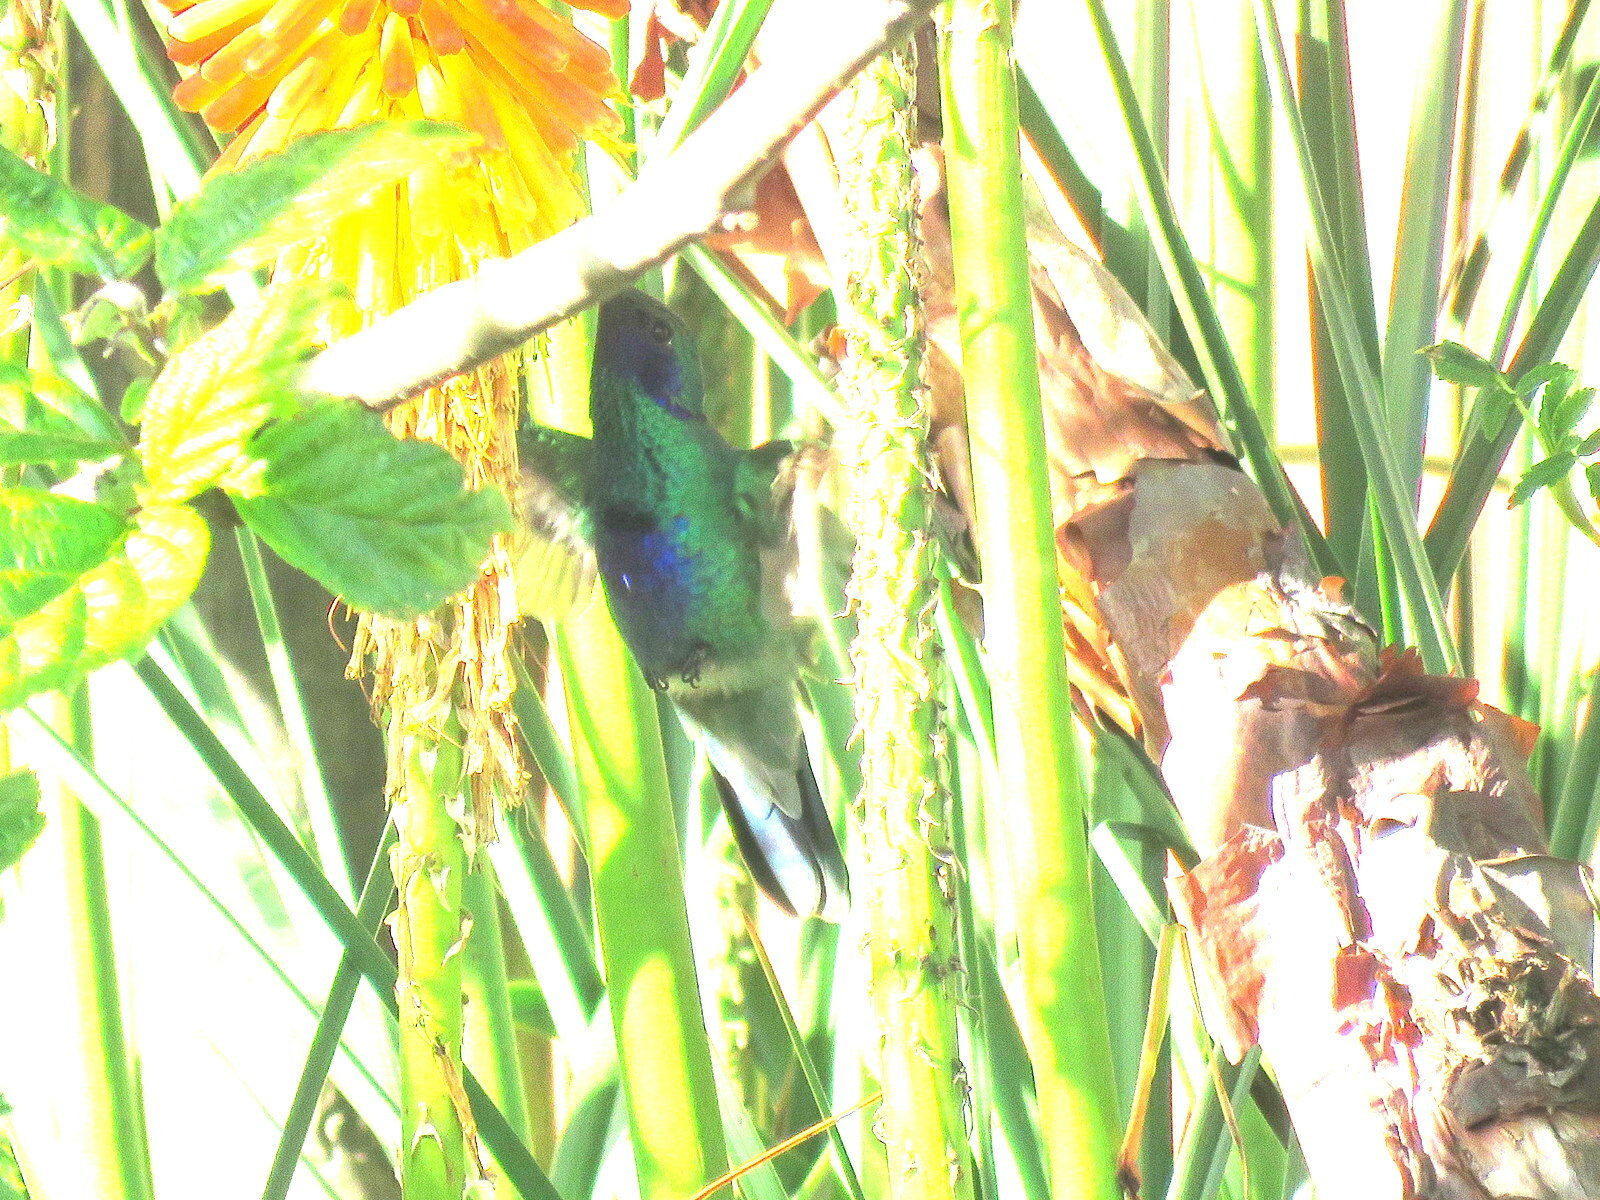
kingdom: Animalia
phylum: Chordata
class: Aves
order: Apodiformes
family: Trochilidae
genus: Colibri
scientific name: Colibri coruscans
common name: Sparkling violetear
